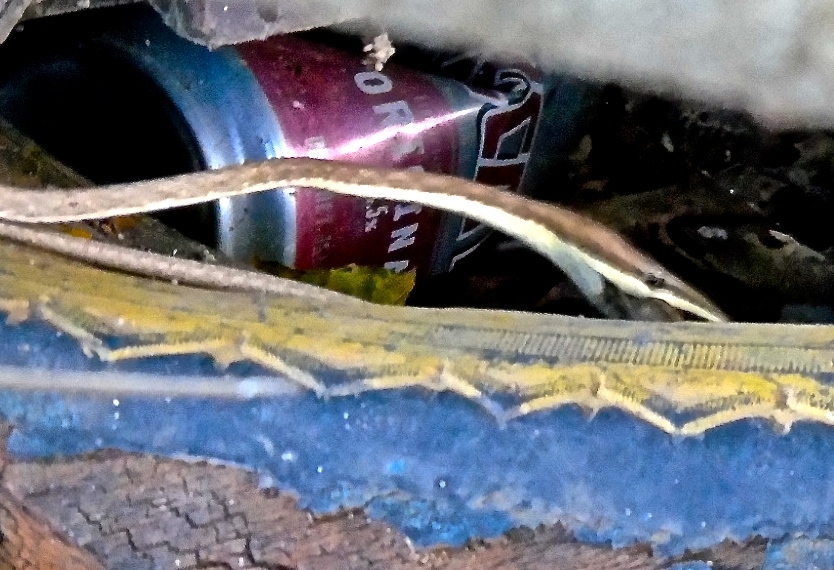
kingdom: Animalia
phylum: Chordata
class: Squamata
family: Colubridae
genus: Oxybelis
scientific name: Oxybelis microphthalmus
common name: Thrornscrub vine snake
